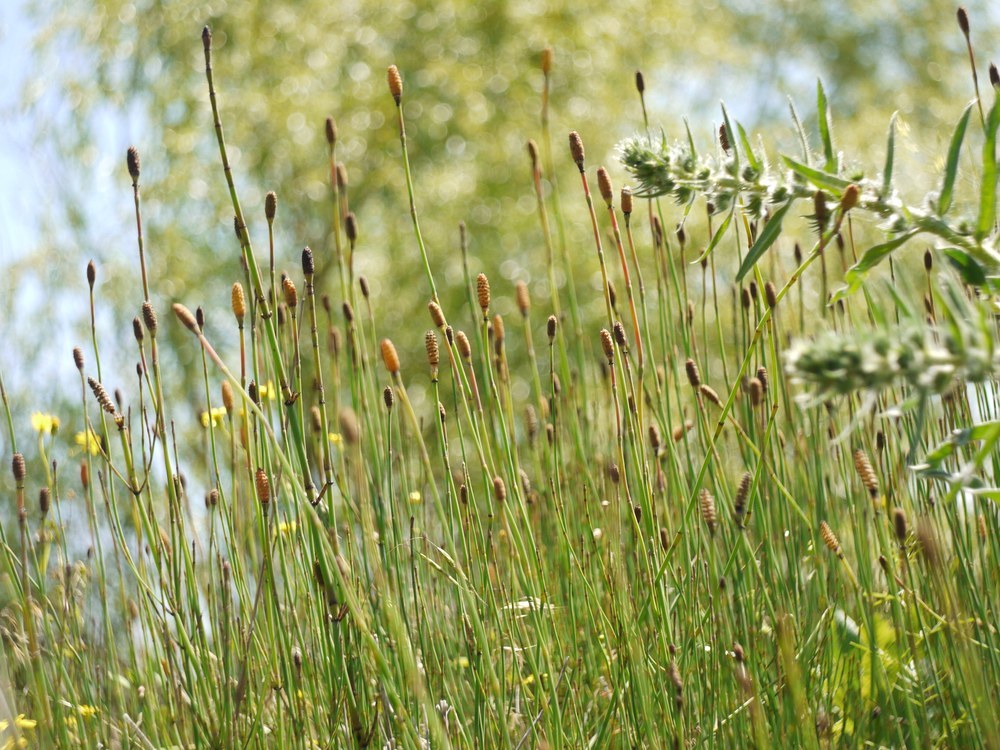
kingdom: Plantae
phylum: Tracheophyta
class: Polypodiopsida
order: Equisetales
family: Equisetaceae
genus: Equisetum
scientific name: Equisetum ramosissimum
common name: Branched horsetail
